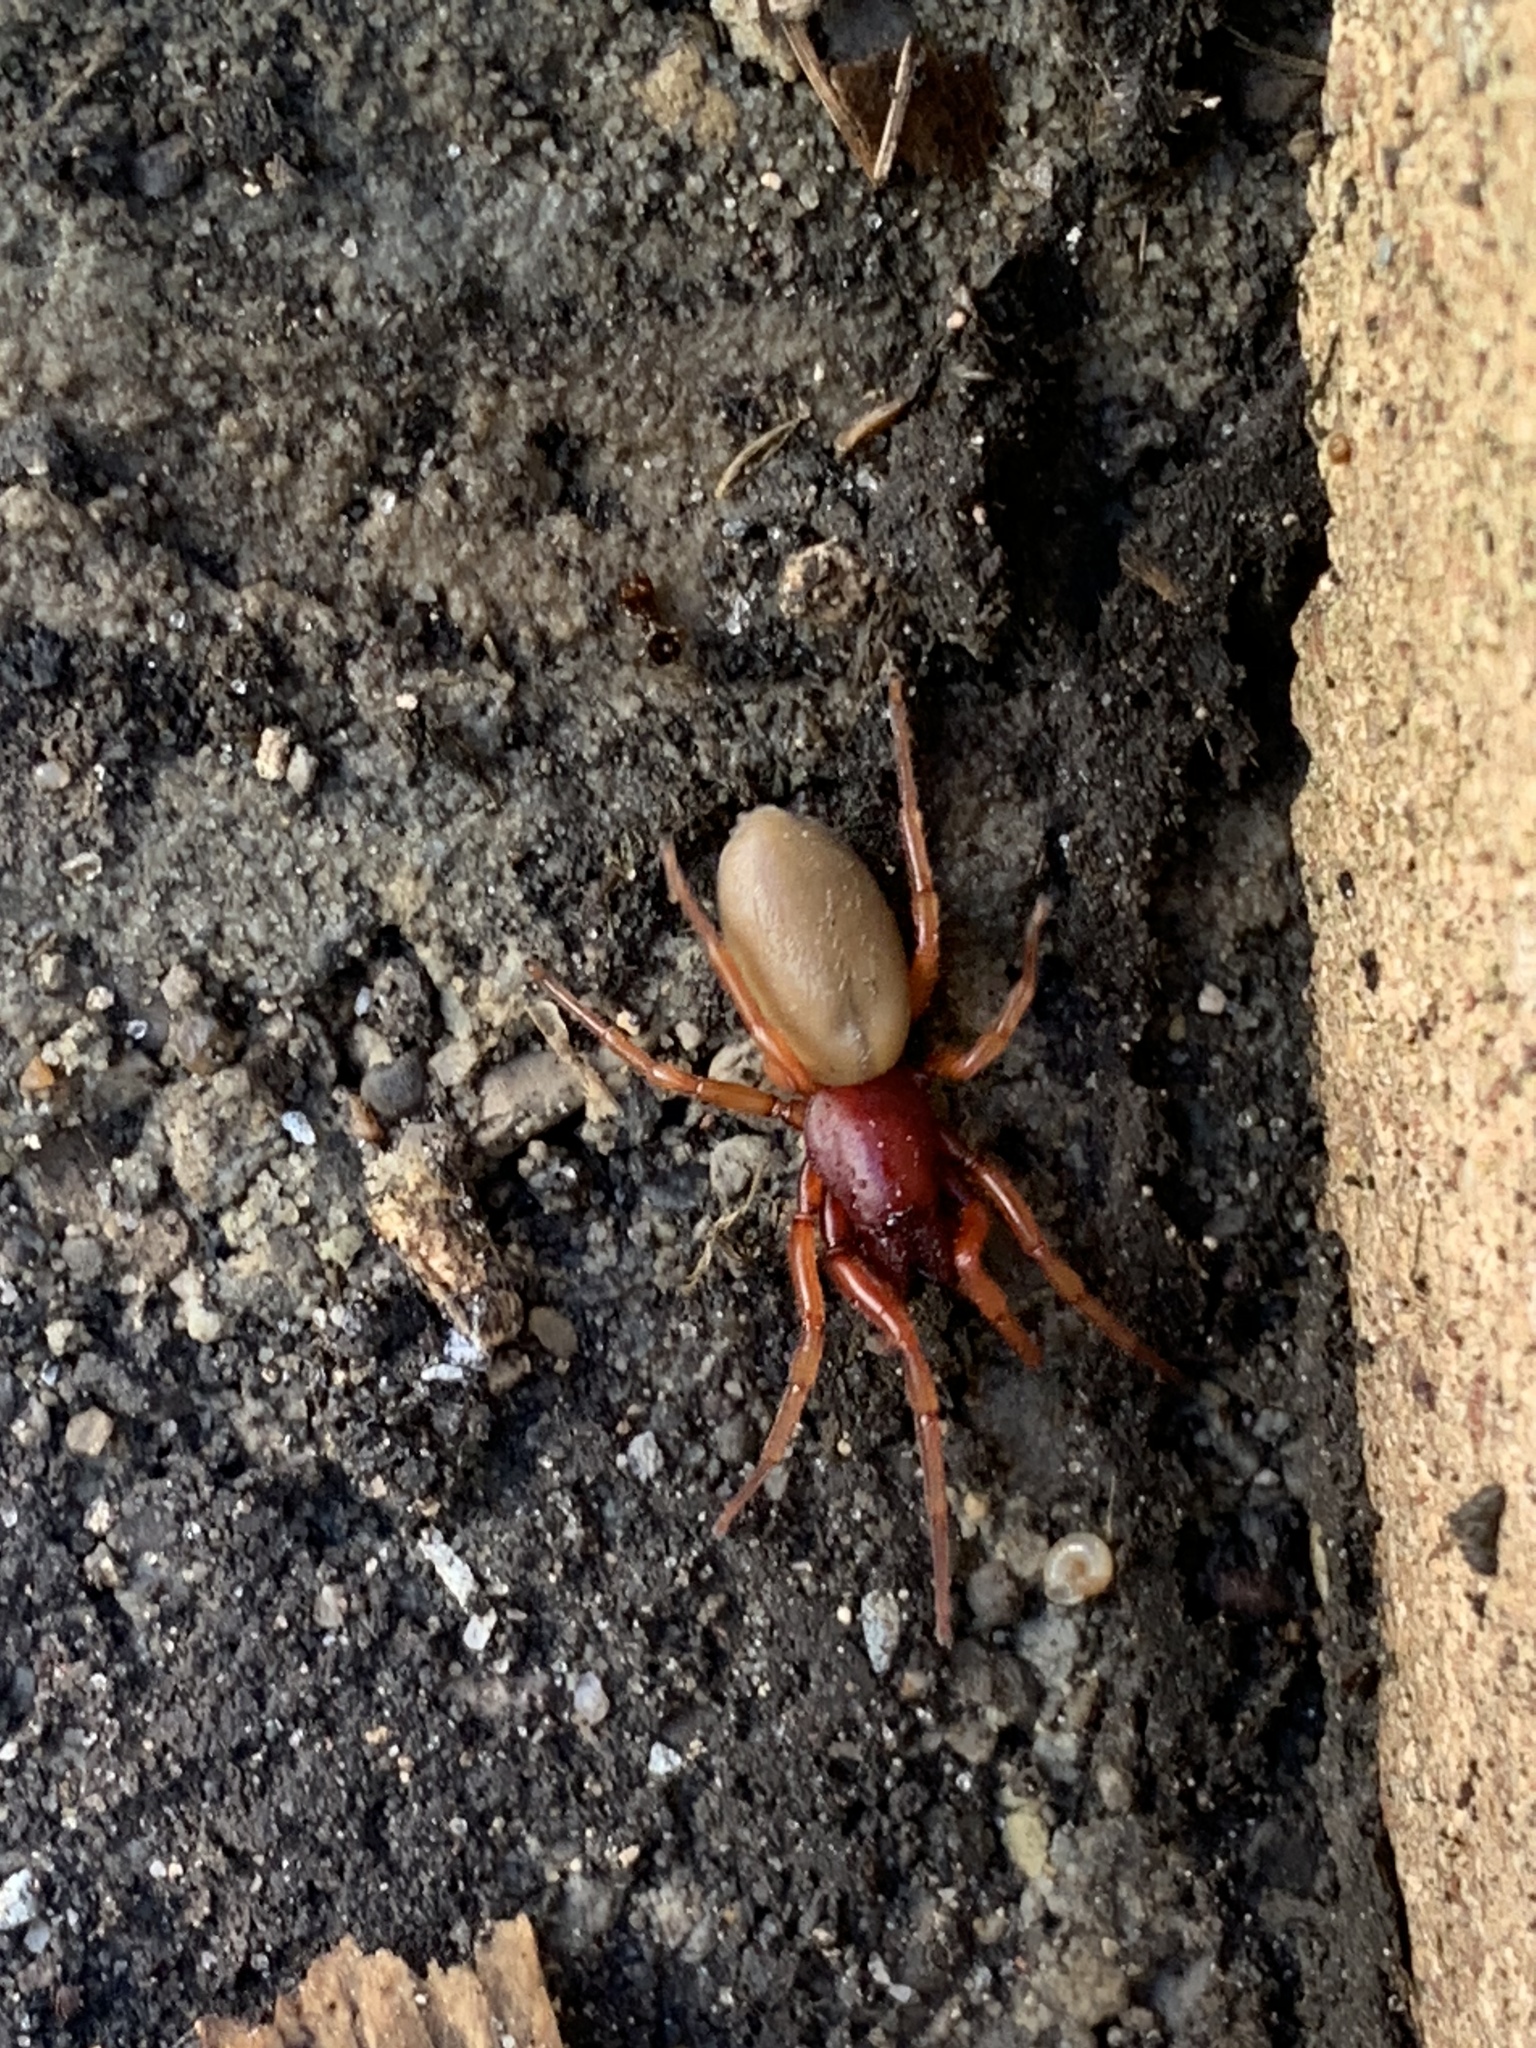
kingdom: Animalia
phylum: Arthropoda
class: Arachnida
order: Araneae
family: Dysderidae
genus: Dysdera
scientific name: Dysdera crocata
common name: Woodlouse spider
